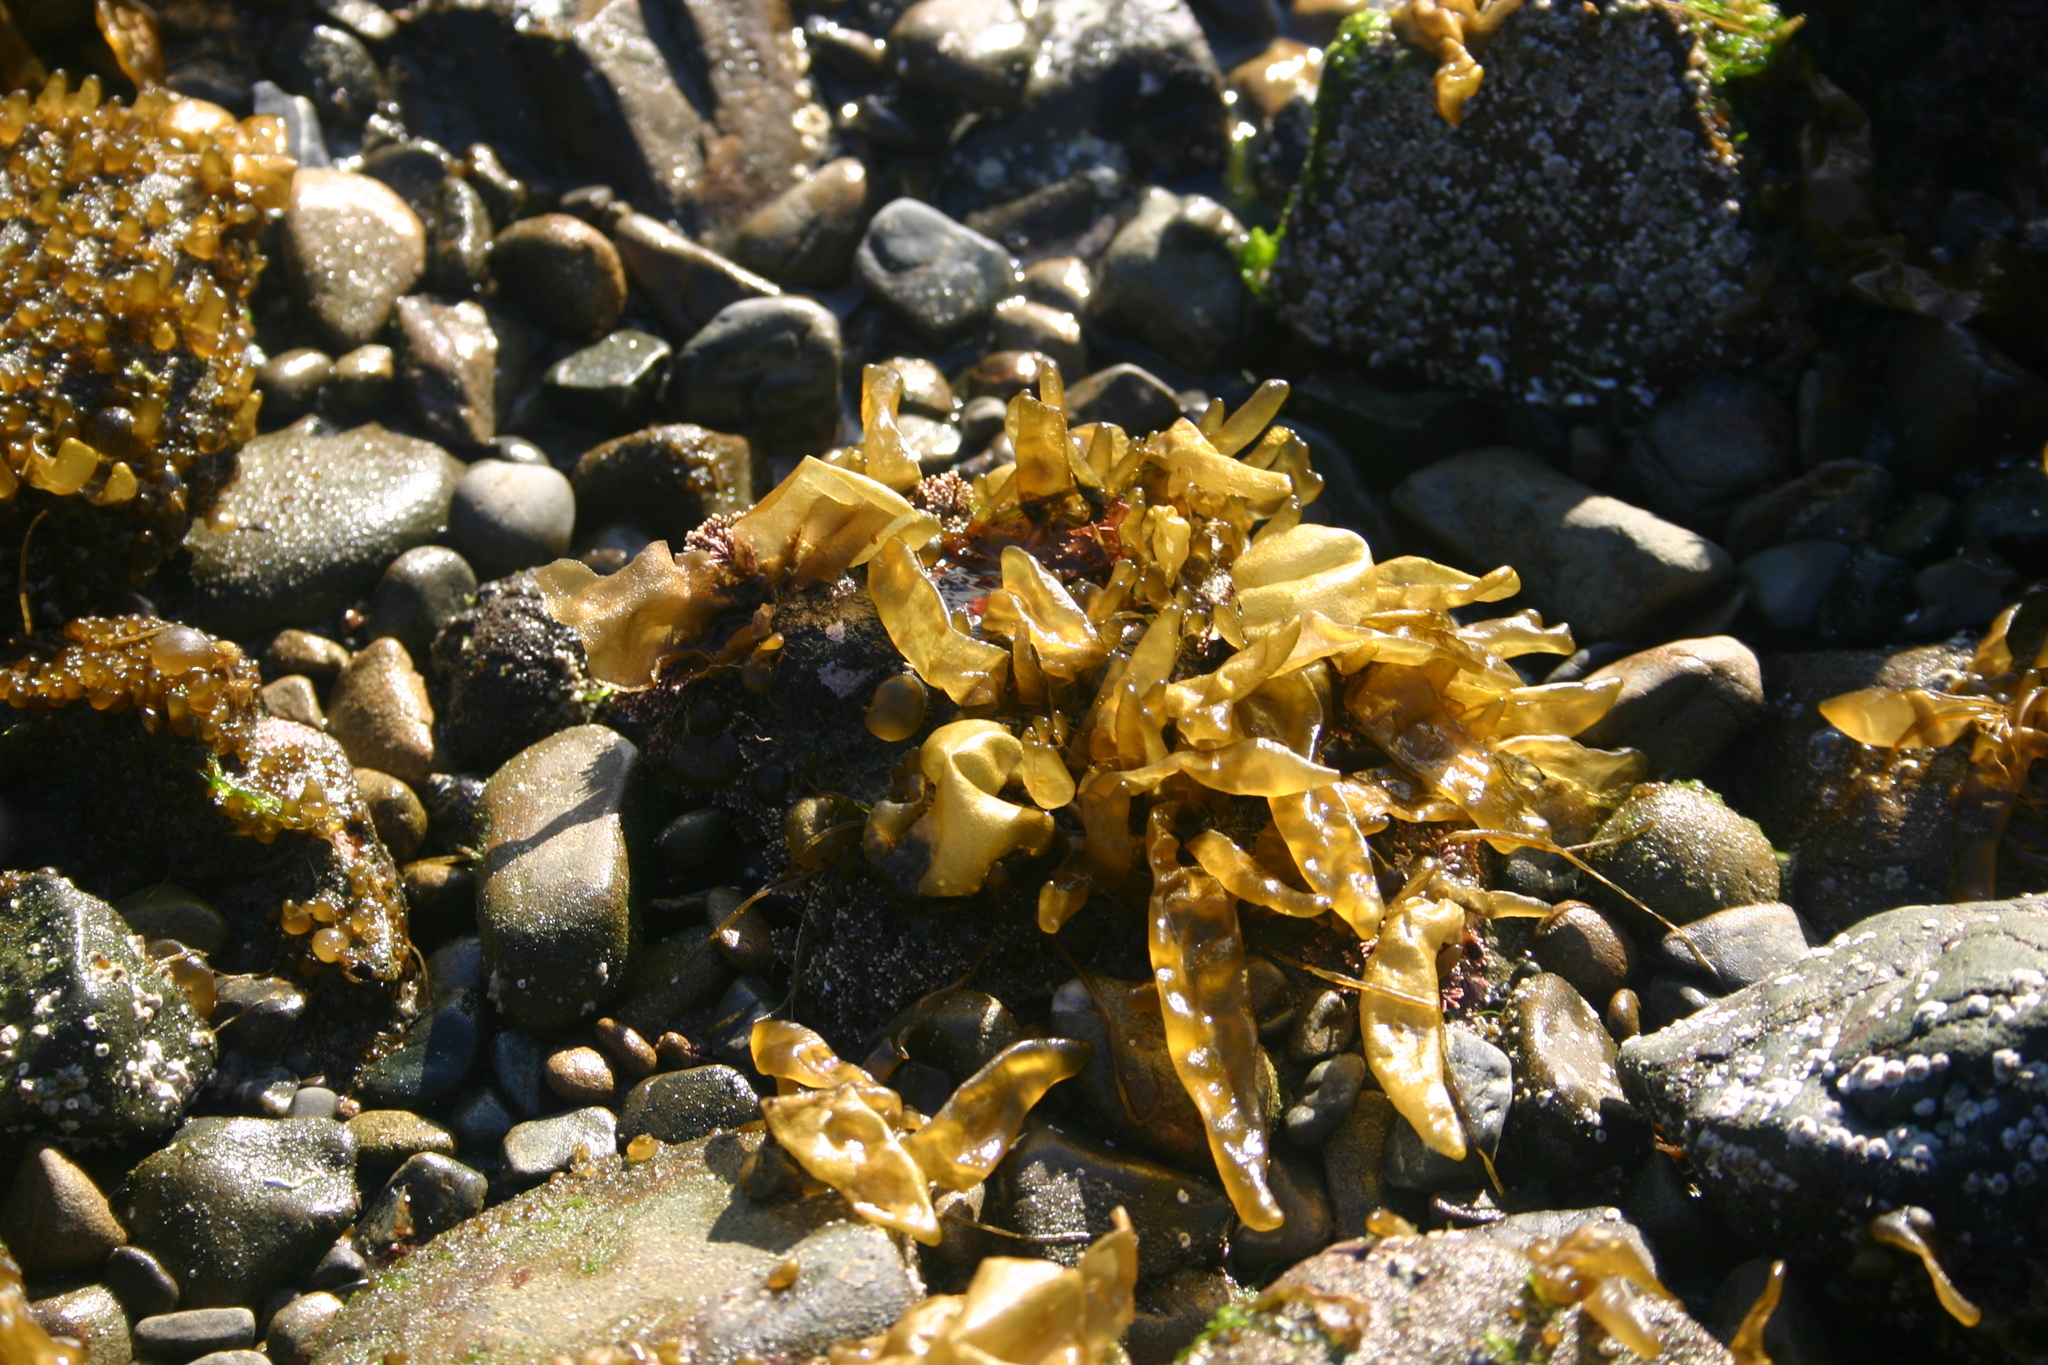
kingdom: Chromista
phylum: Ochrophyta
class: Phaeophyceae
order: Scytosiphonales
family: Scytosiphonaceae
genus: Dactylosiphon
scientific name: Dactylosiphon bullosus
